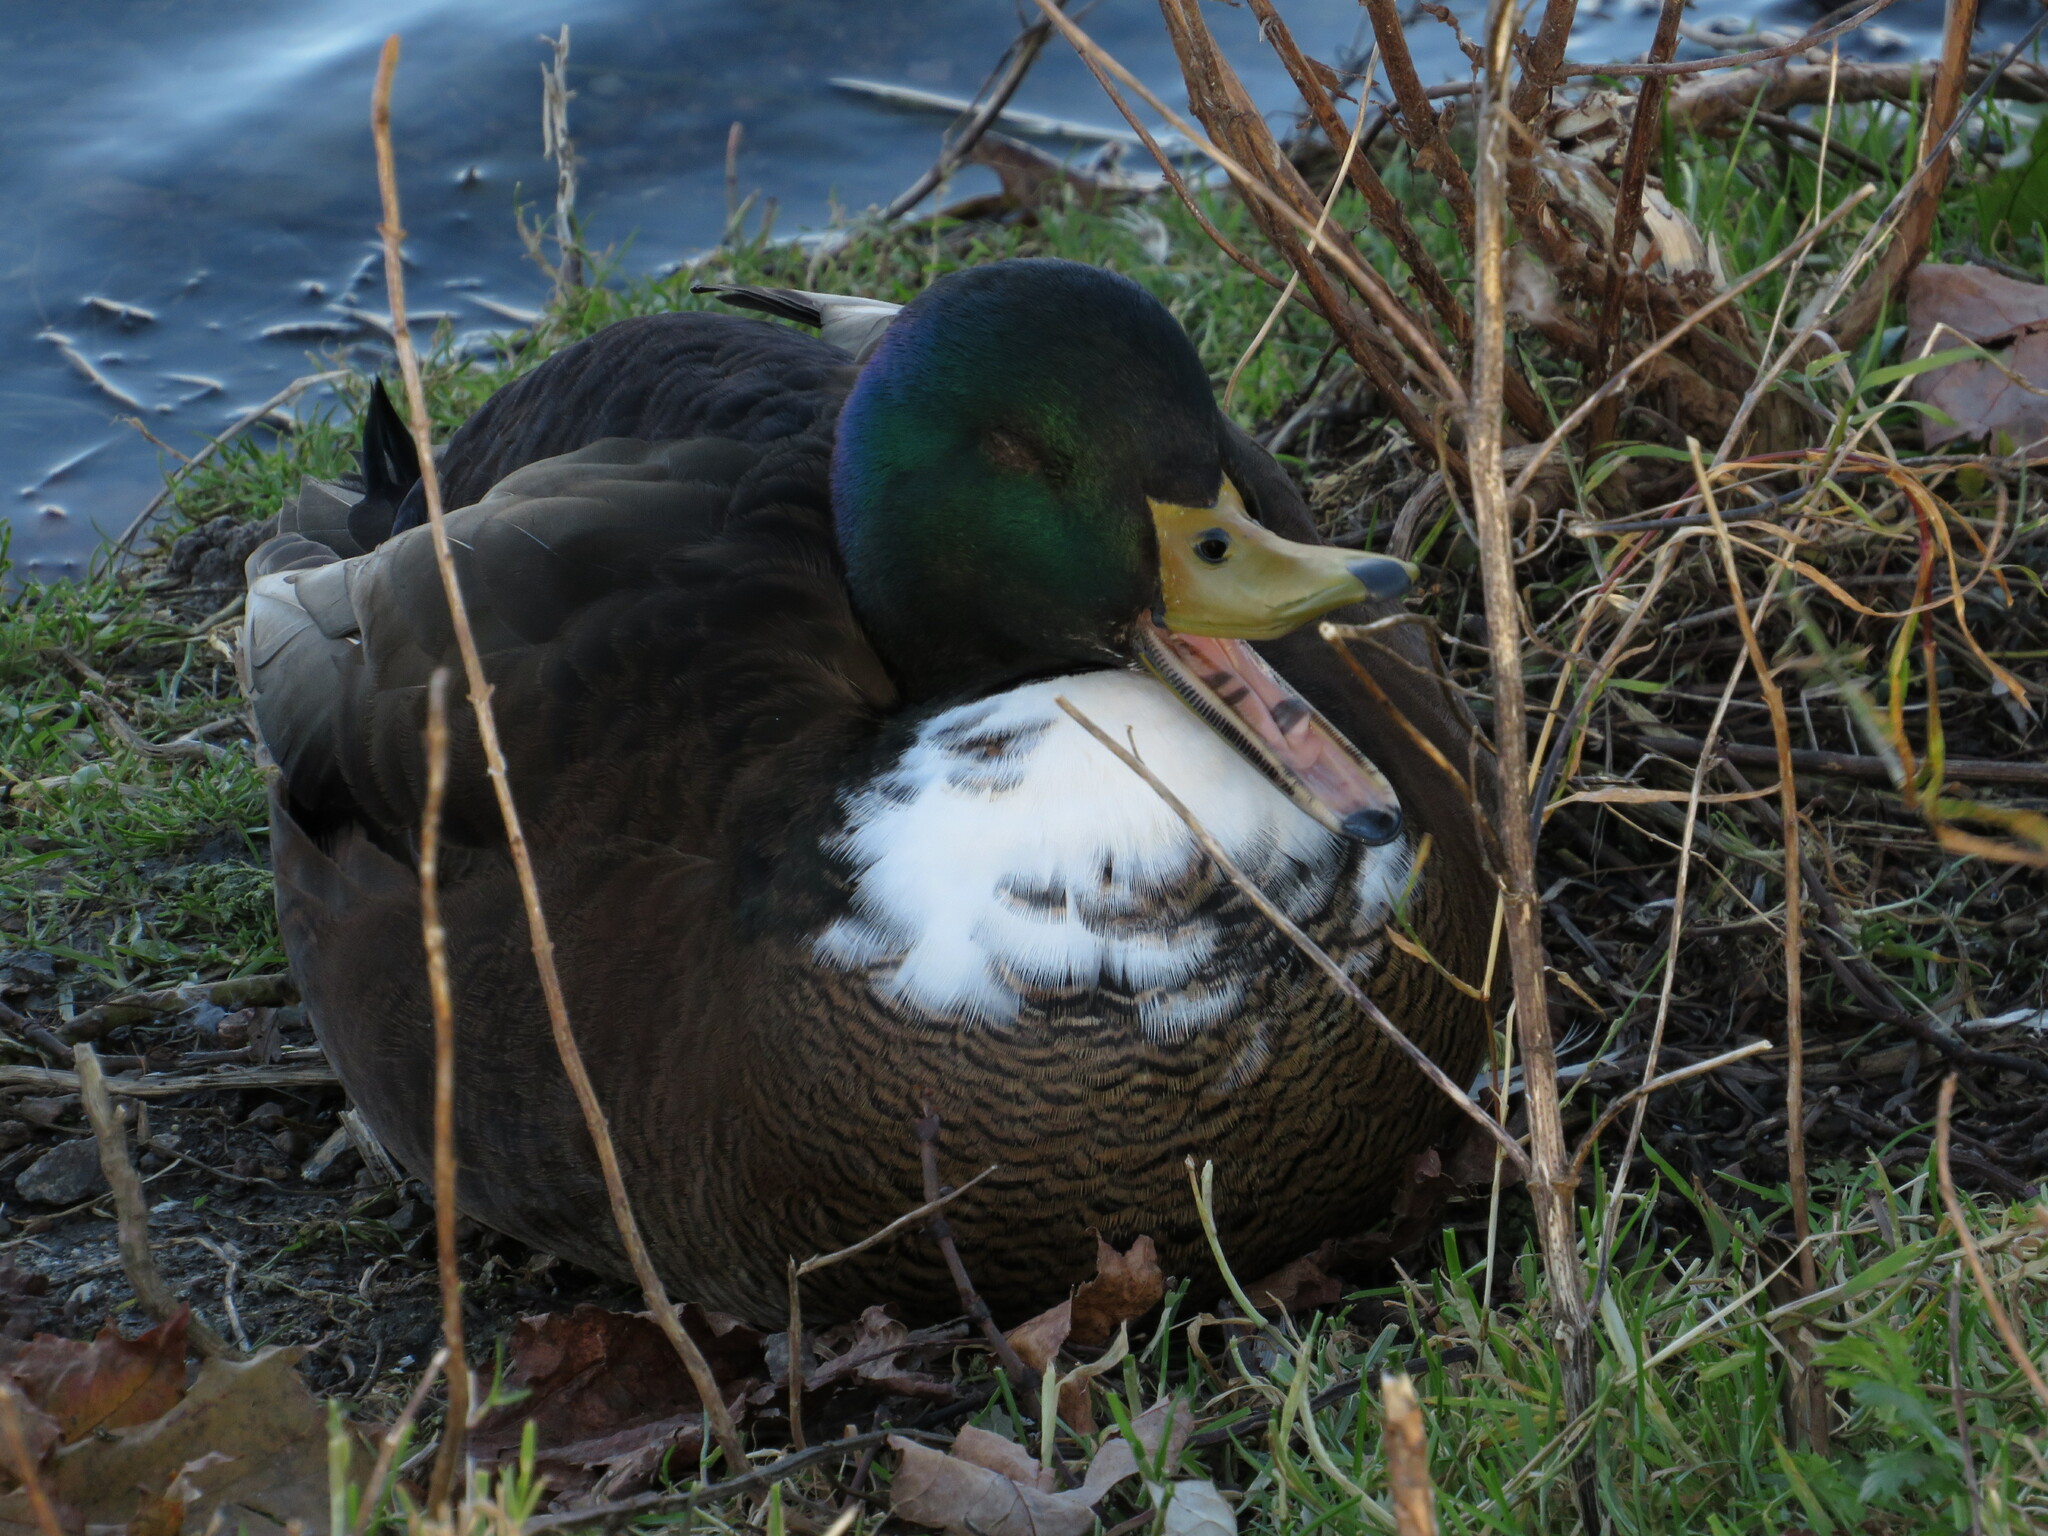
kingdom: Animalia
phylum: Chordata
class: Aves
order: Anseriformes
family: Anatidae
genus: Anas
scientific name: Anas platyrhynchos
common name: Mallard
